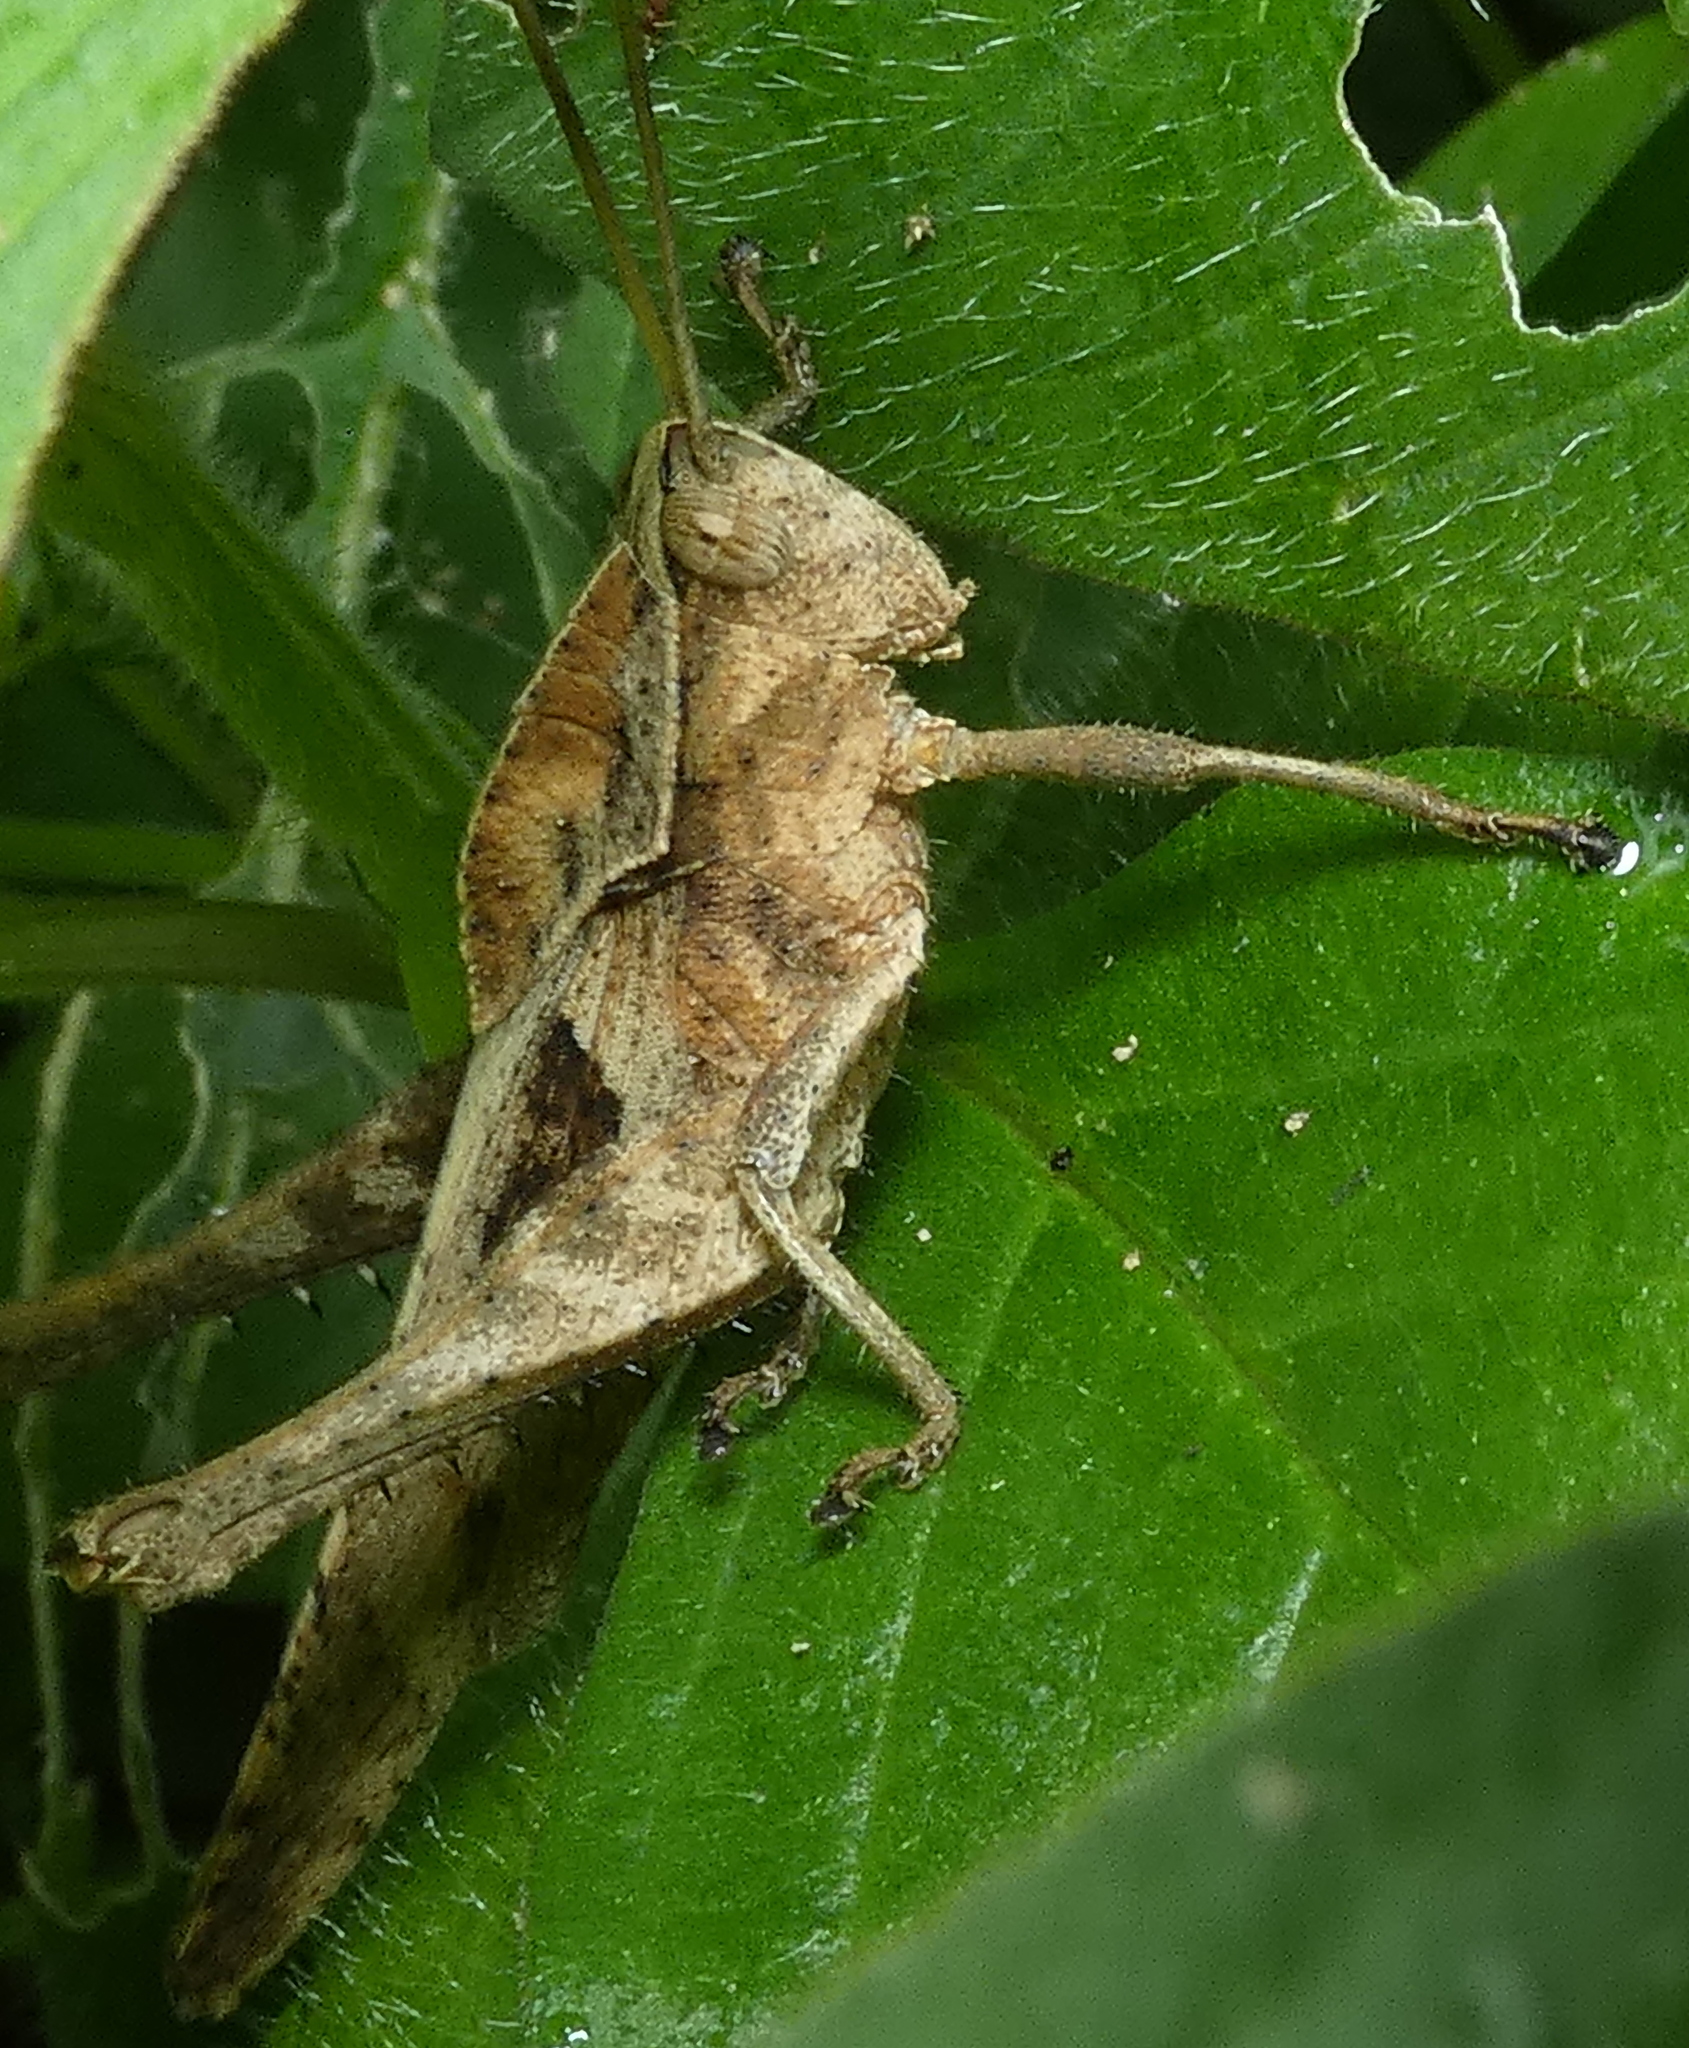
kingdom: Animalia
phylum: Arthropoda
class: Insecta
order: Orthoptera
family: Romaleidae
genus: Xyleus
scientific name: Xyleus discoideus
